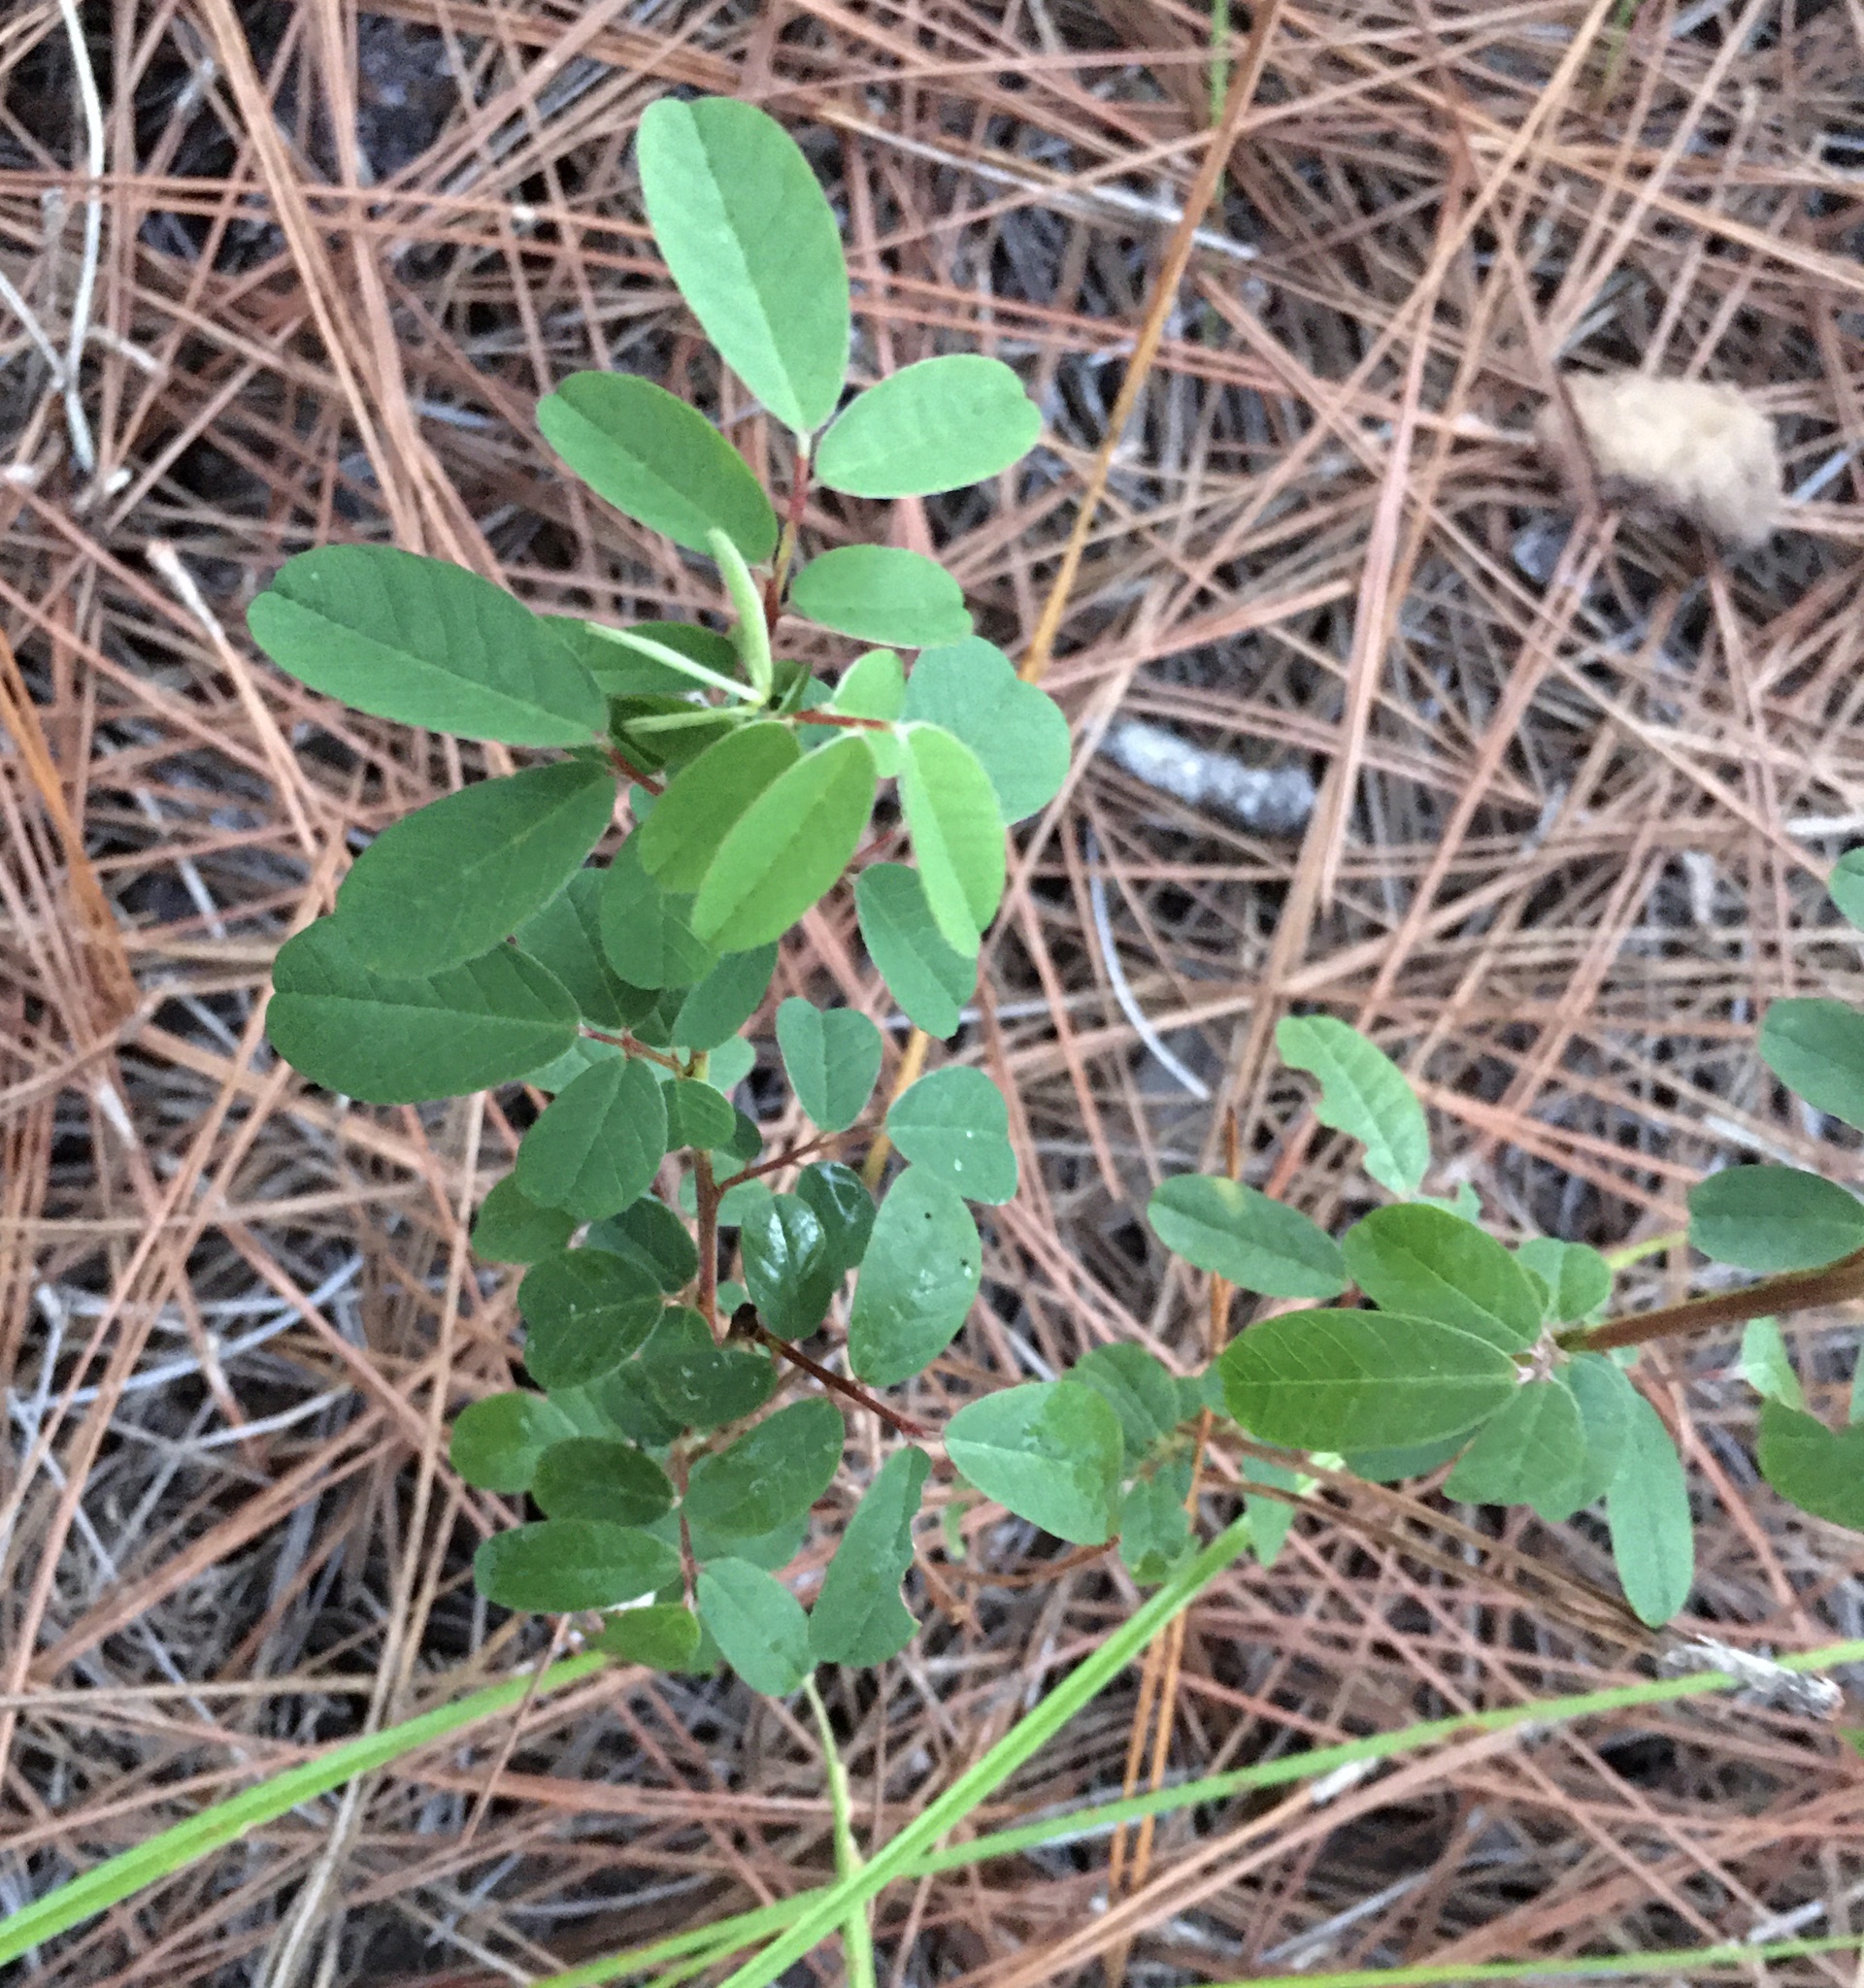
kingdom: Plantae
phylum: Tracheophyta
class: Magnoliopsida
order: Fabales
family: Fabaceae
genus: Chapmannia
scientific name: Chapmannia floridana
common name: Alicia
